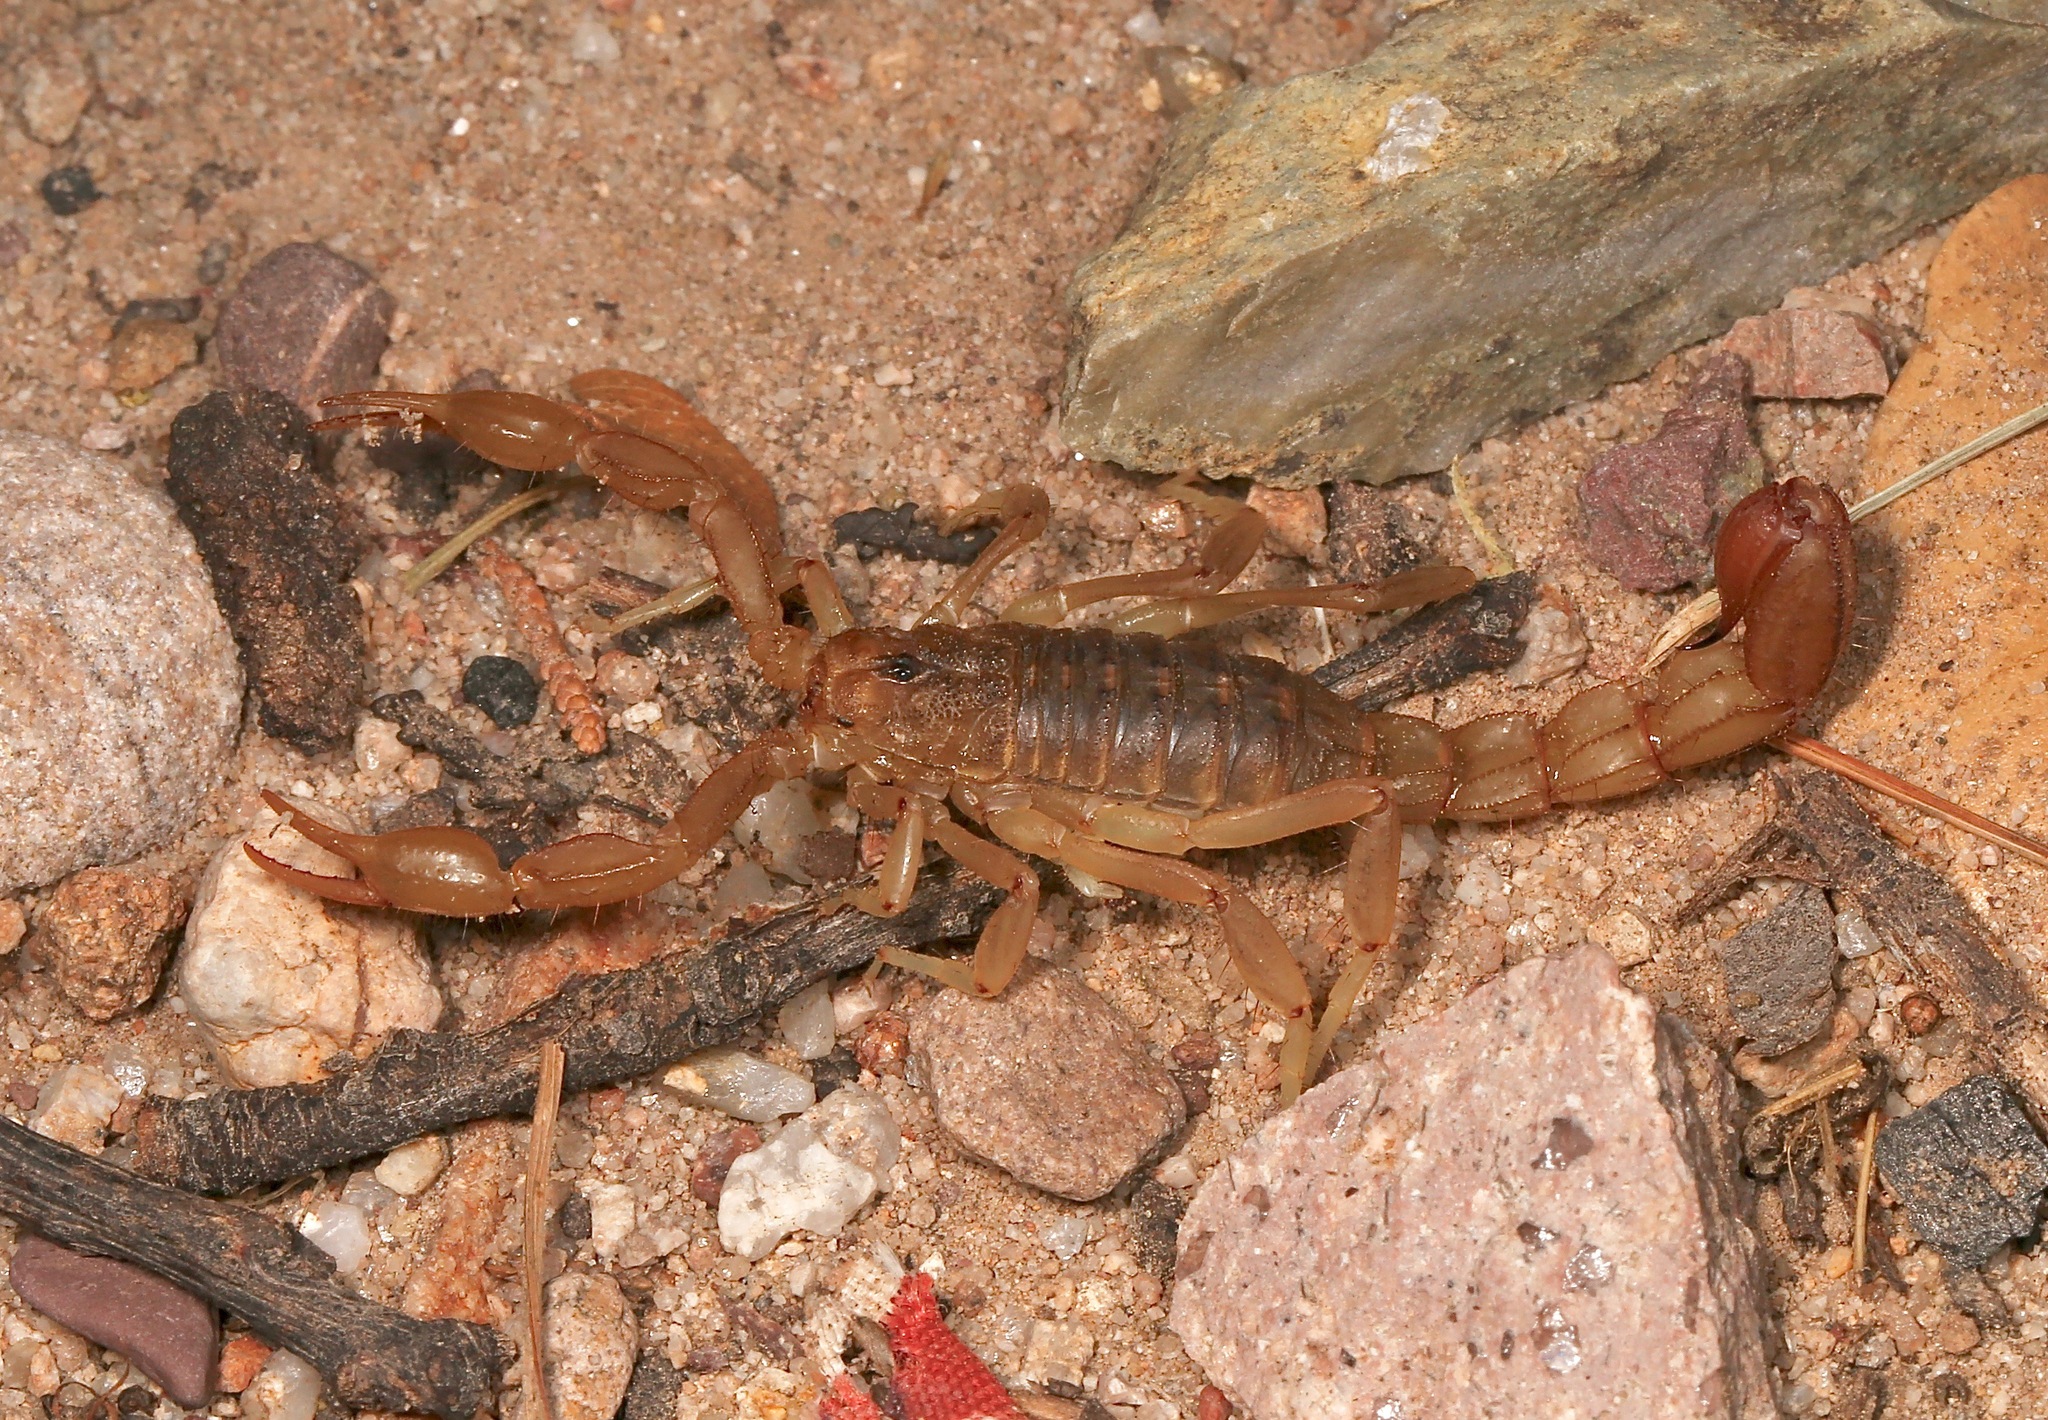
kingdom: Animalia
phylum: Arthropoda
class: Arachnida
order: Scorpiones
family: Vaejovidae
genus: Paravaejovis
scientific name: Paravaejovis spinigerus
